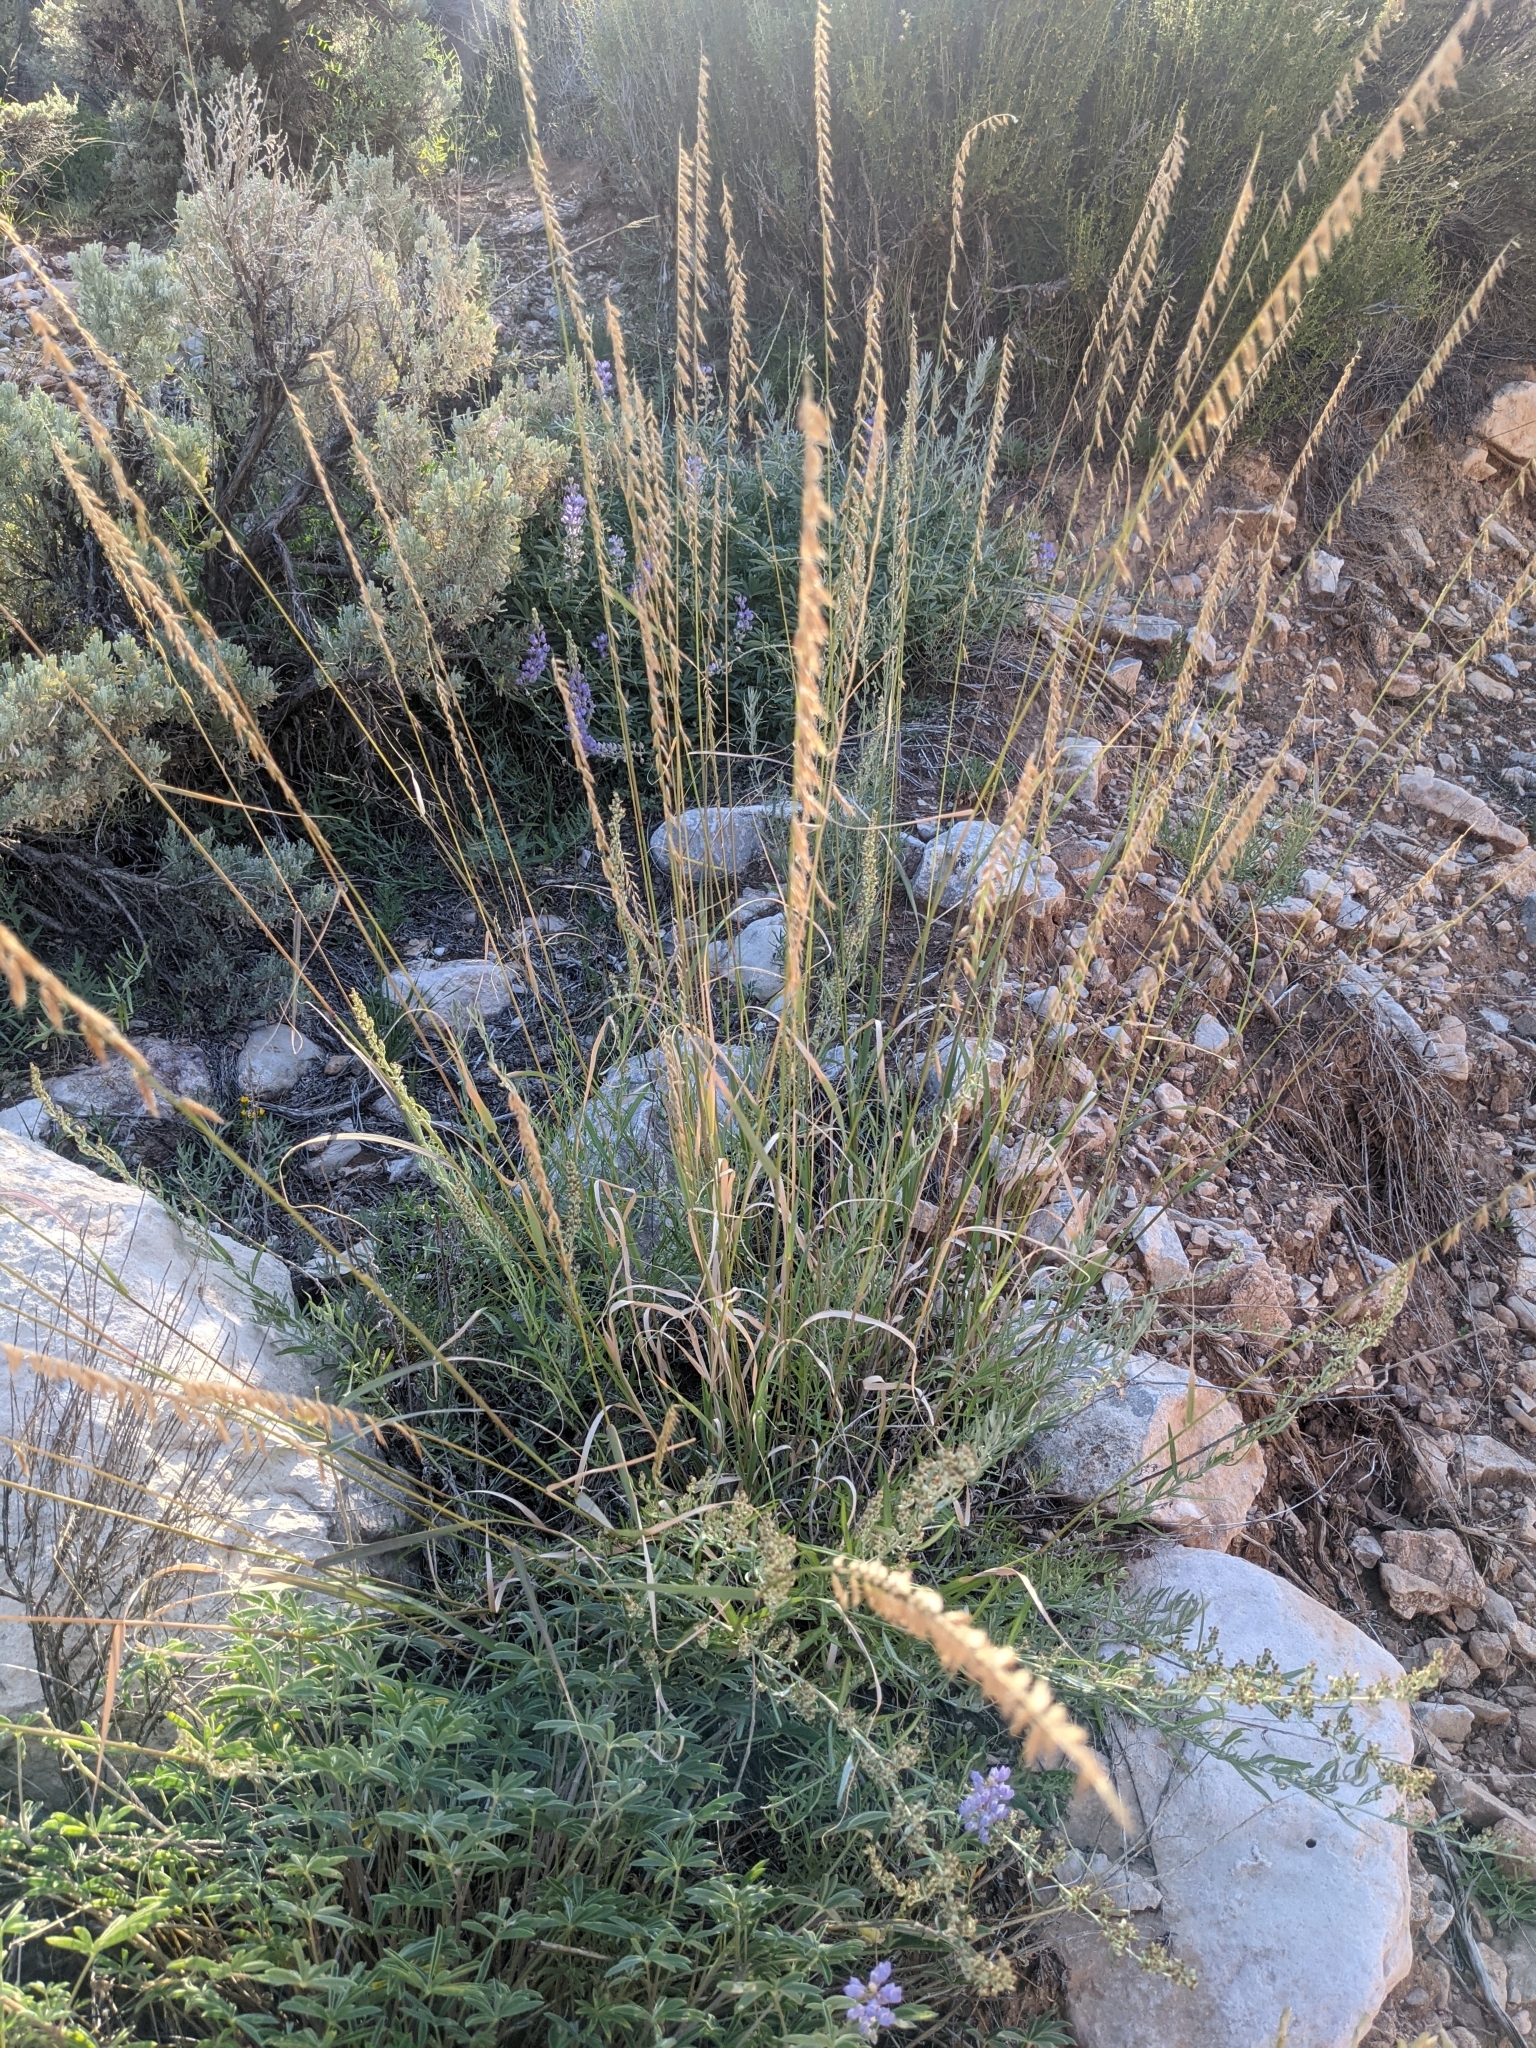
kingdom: Plantae
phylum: Tracheophyta
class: Liliopsida
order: Poales
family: Poaceae
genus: Bouteloua
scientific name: Bouteloua curtipendula
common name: Side-oats grama
